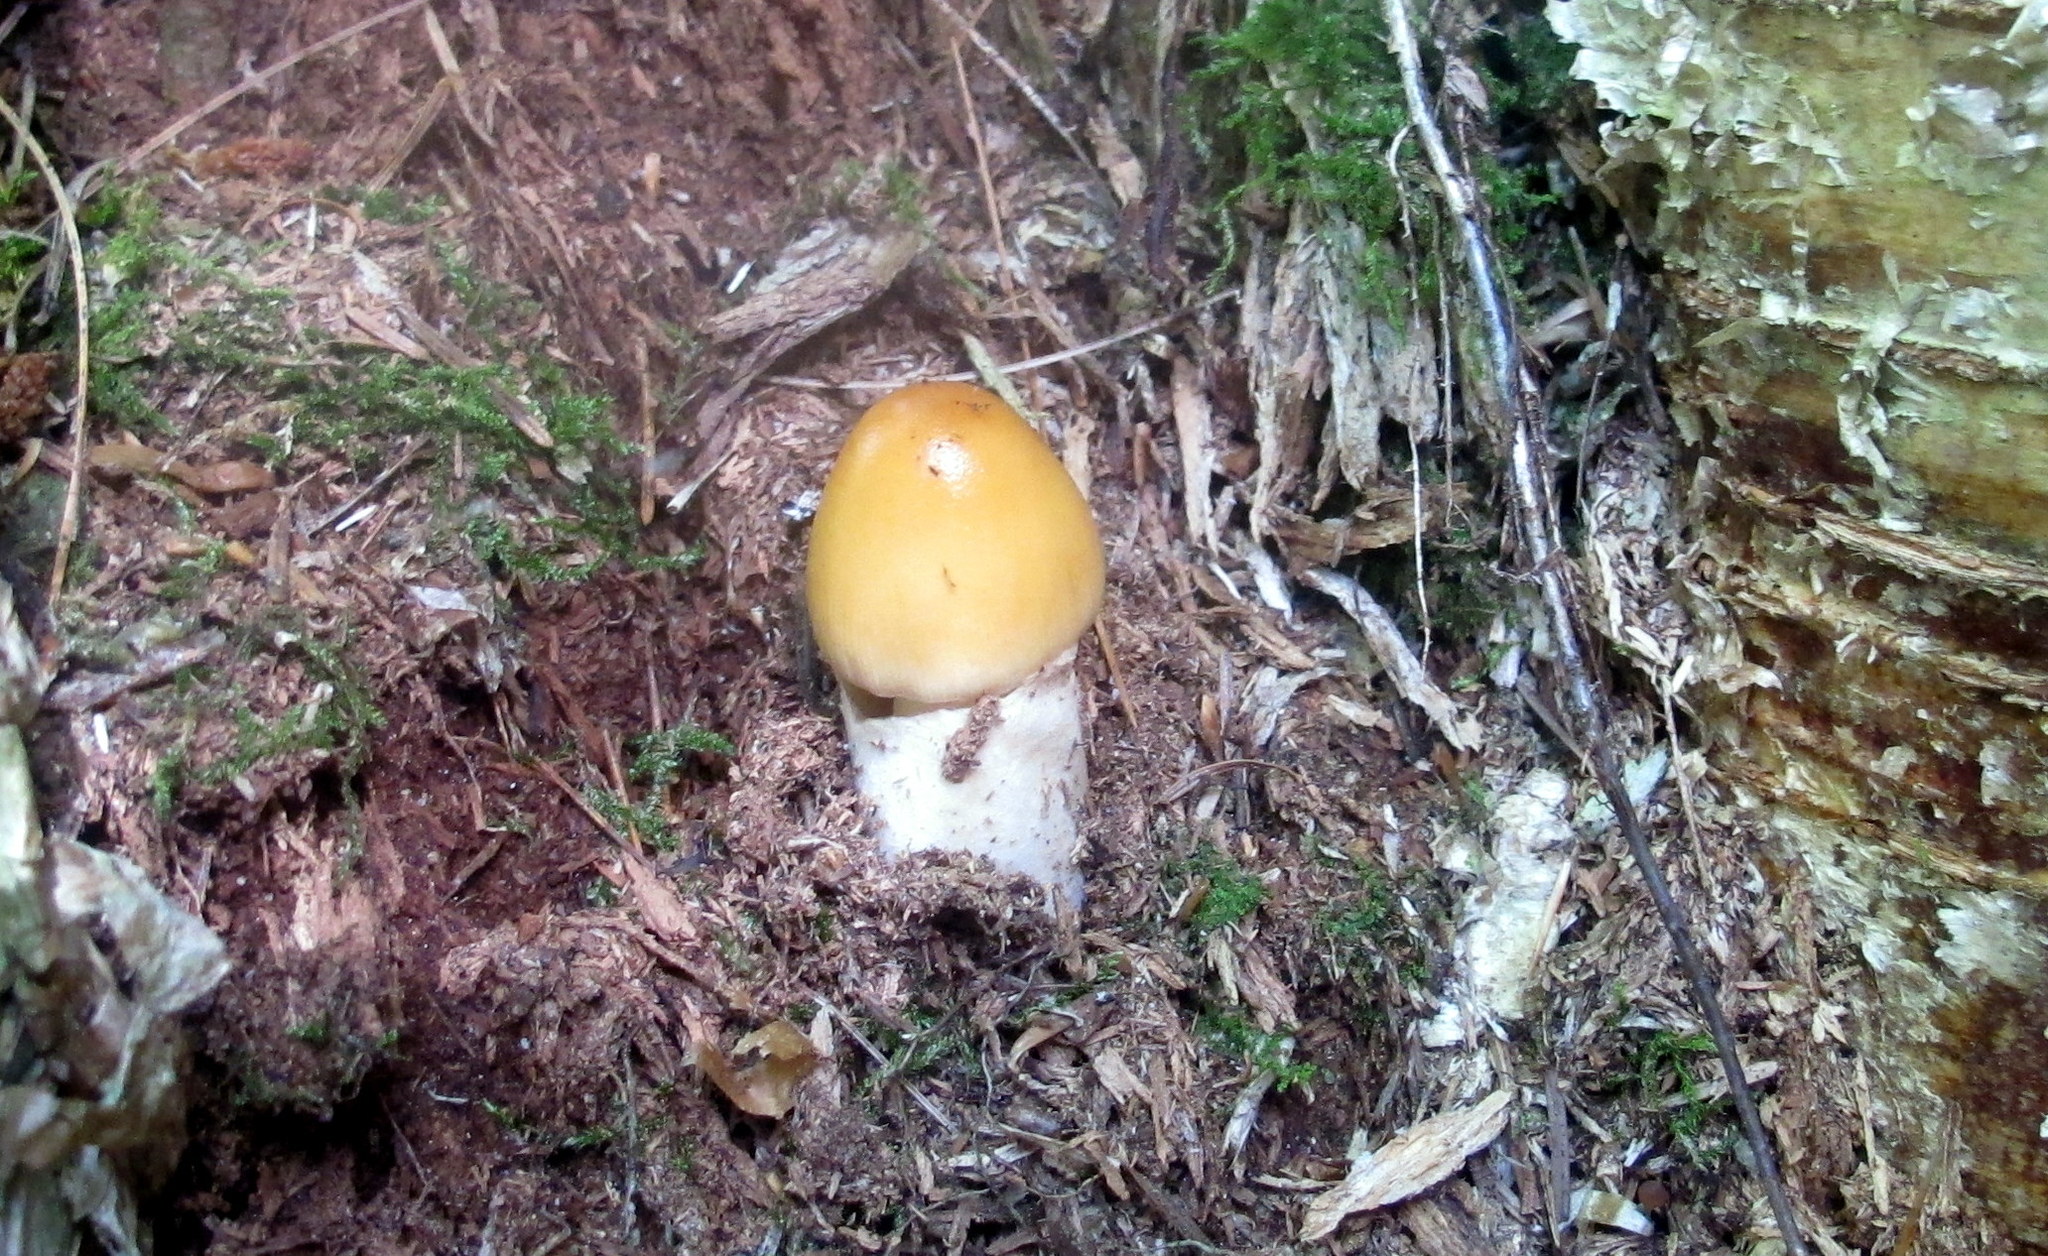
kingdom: Fungi
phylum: Basidiomycota
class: Agaricomycetes
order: Agaricales
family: Amanitaceae
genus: Amanita
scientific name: Amanita fulva
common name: Tawny grisette
